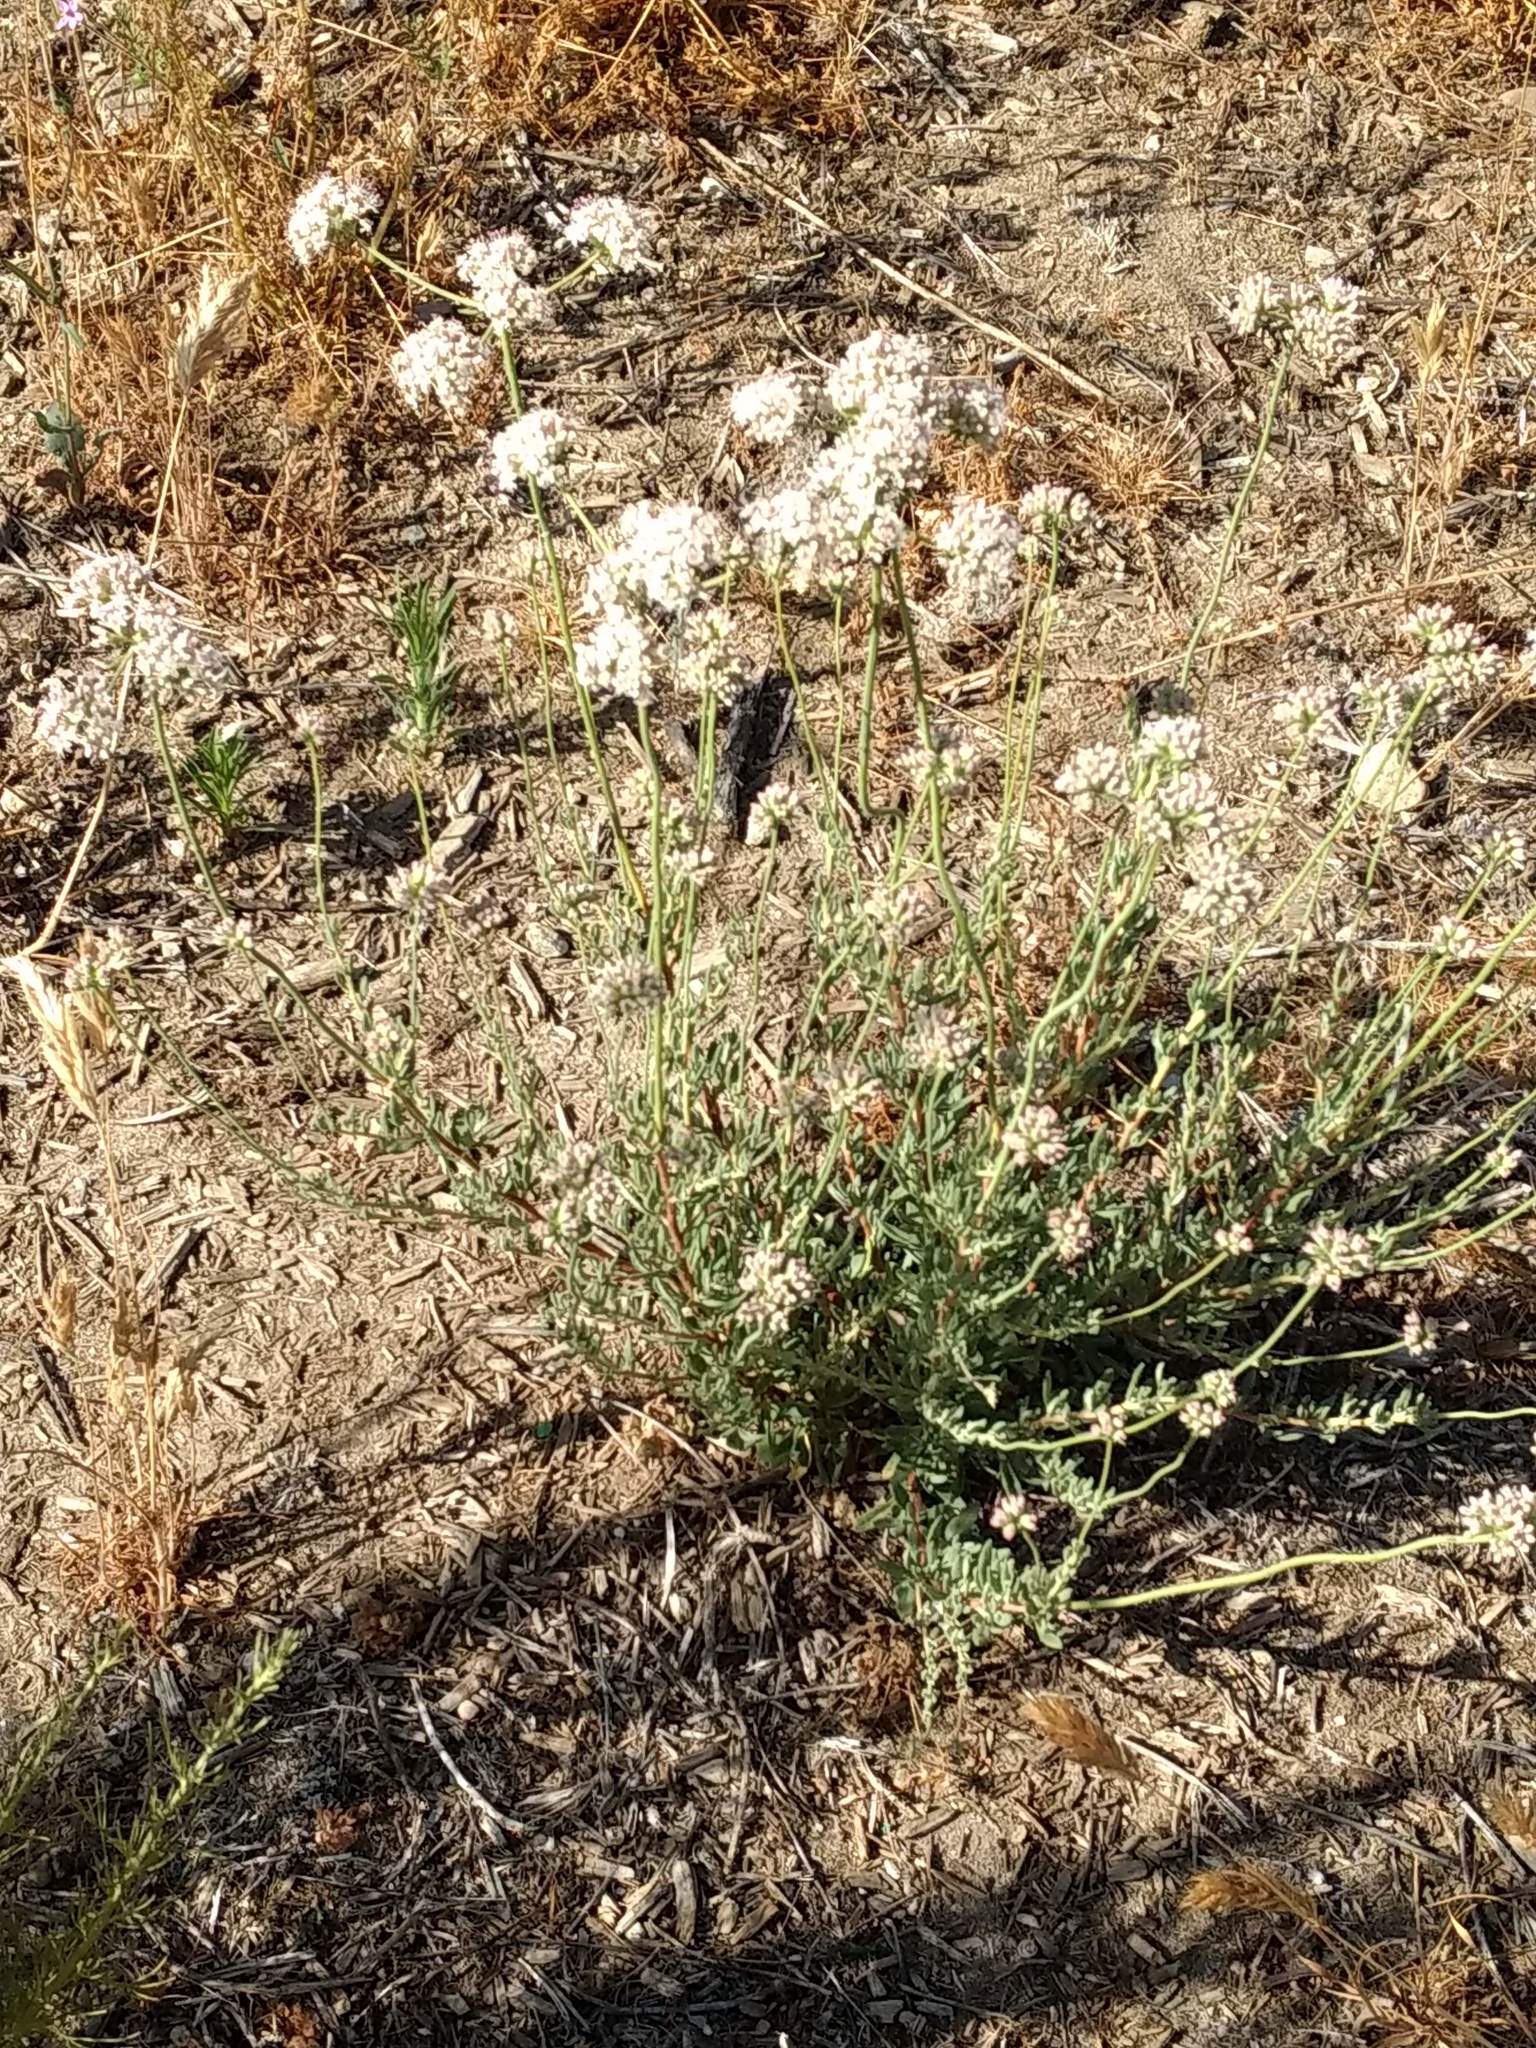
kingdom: Plantae
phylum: Tracheophyta
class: Magnoliopsida
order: Caryophyllales
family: Polygonaceae
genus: Eriogonum
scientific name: Eriogonum fasciculatum
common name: California wild buckwheat
